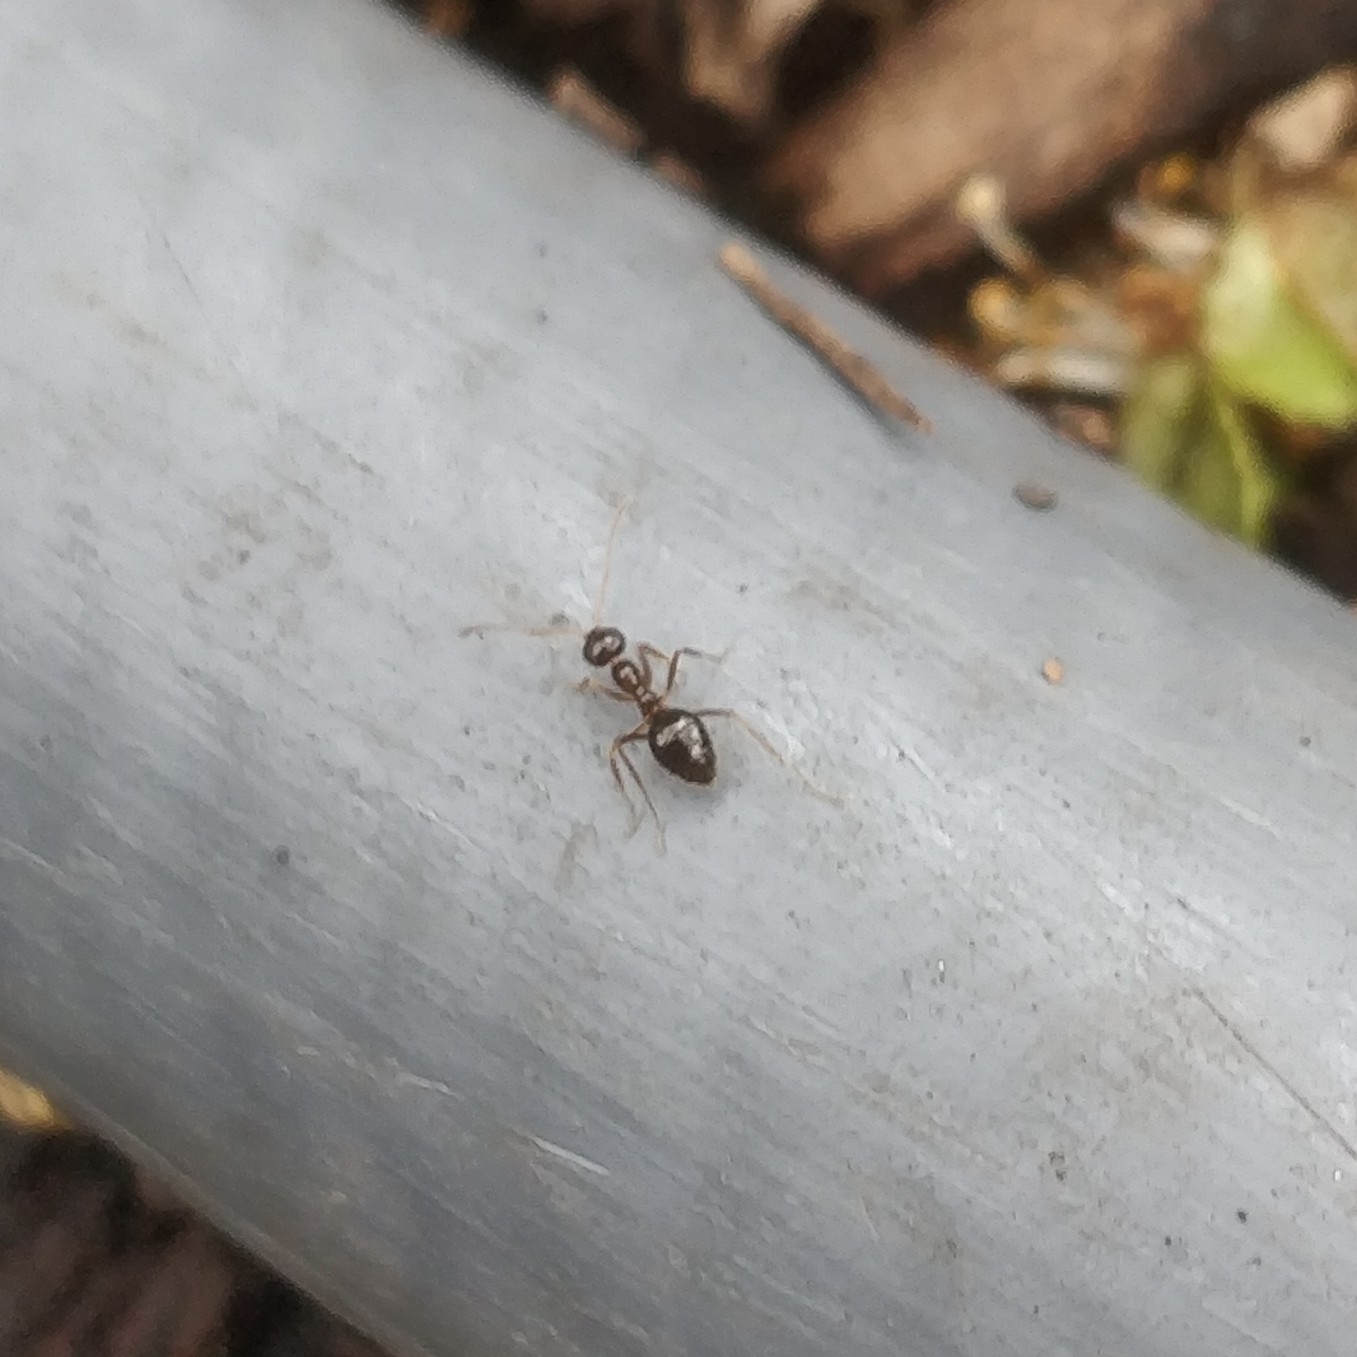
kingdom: Animalia
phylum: Arthropoda
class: Insecta
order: Hymenoptera
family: Formicidae
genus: Prenolepis
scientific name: Prenolepis imparis
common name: Small honey ant
